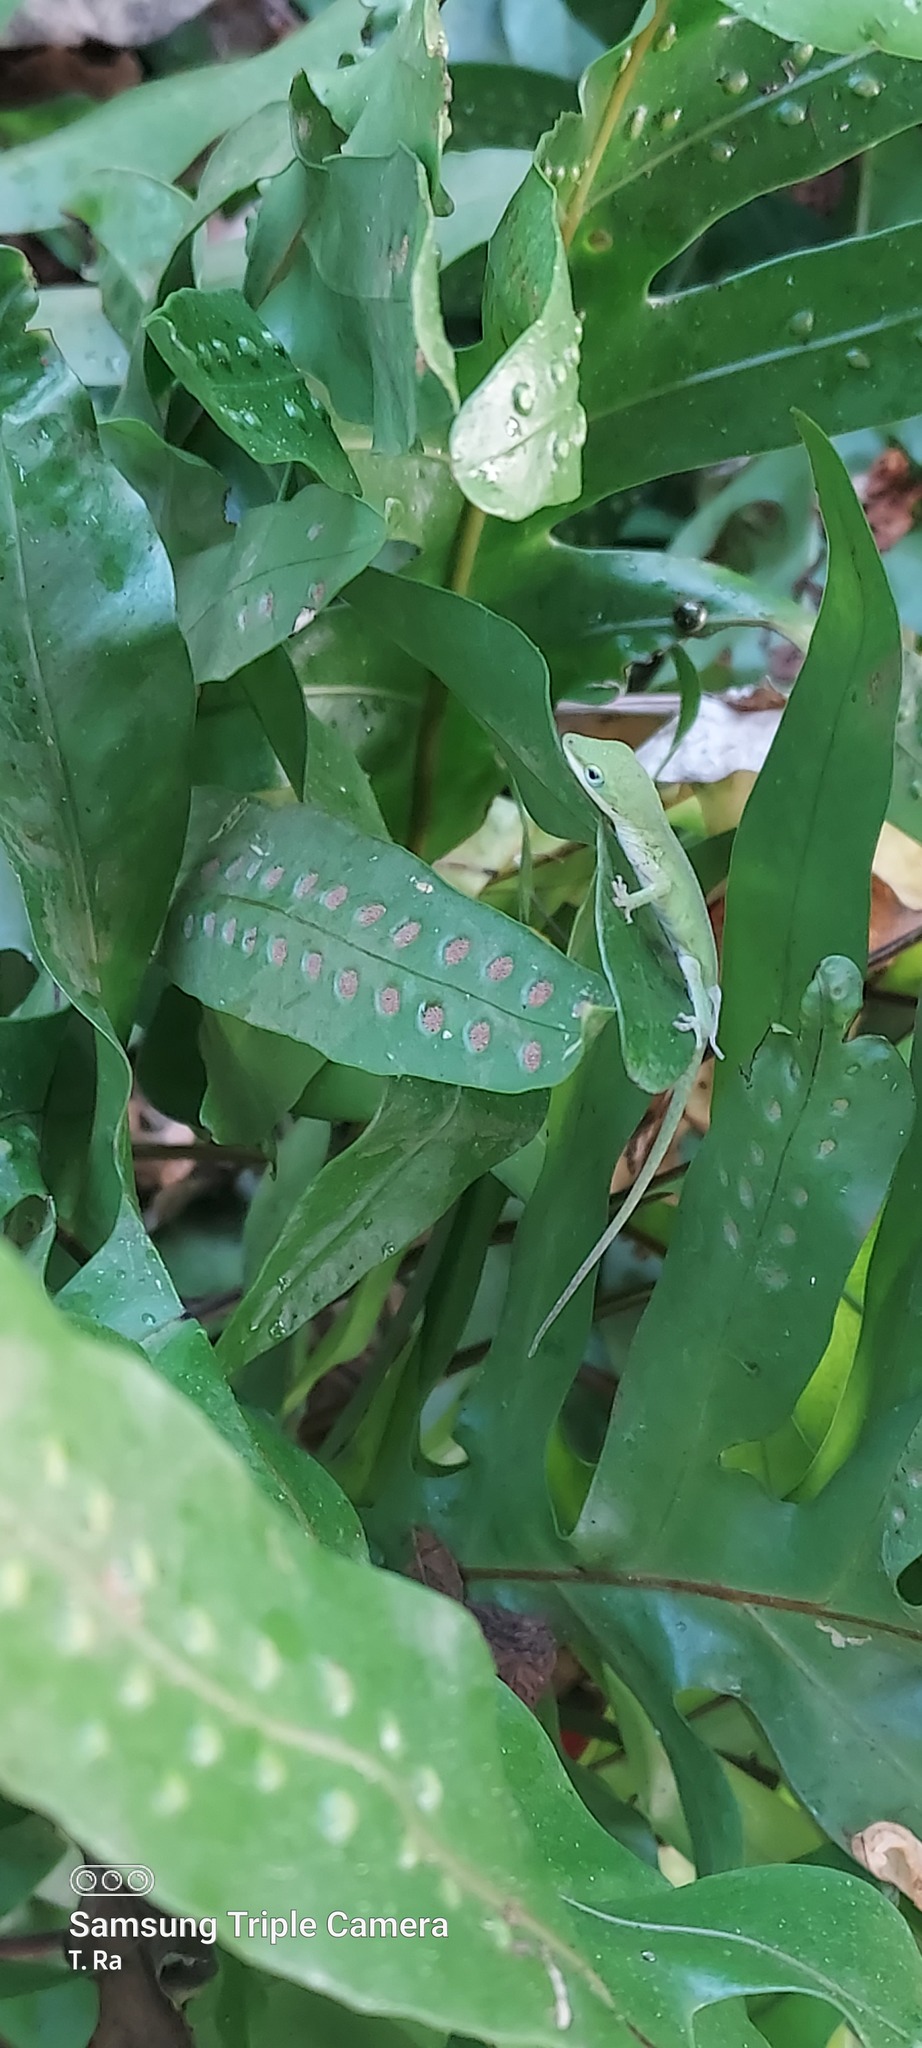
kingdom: Animalia
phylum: Chordata
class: Squamata
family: Dactyloidae
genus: Anolis
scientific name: Anolis carolinensis
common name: Green anole
